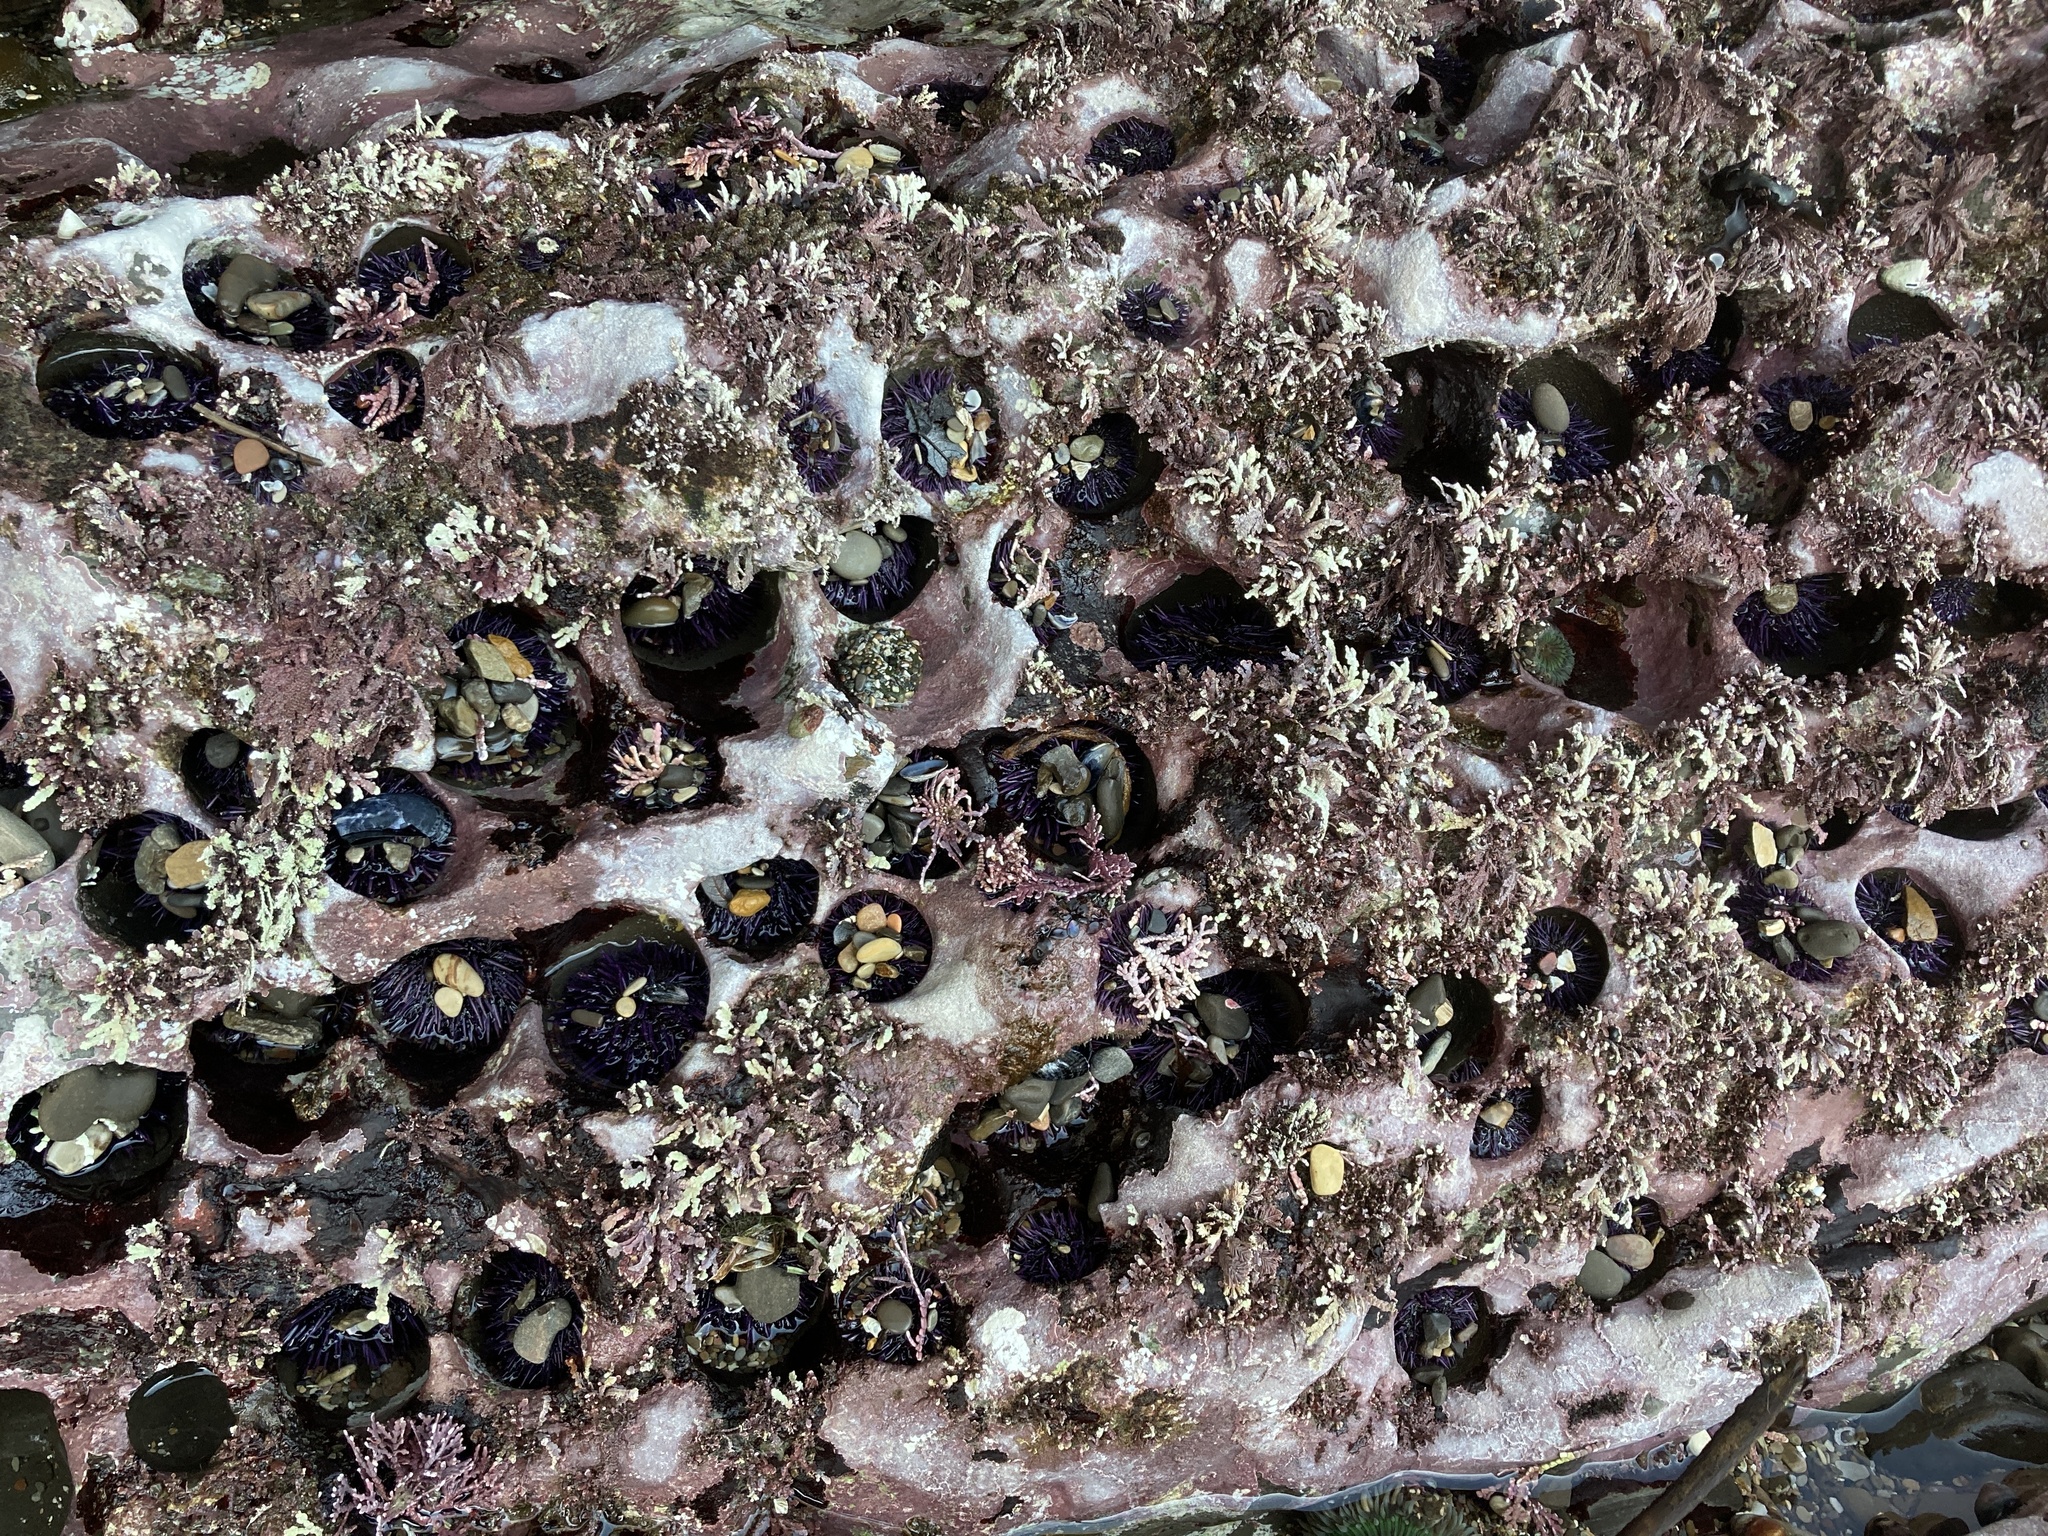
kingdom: Animalia
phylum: Echinodermata
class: Echinoidea
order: Camarodonta
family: Strongylocentrotidae
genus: Strongylocentrotus
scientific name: Strongylocentrotus purpuratus
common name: Purple sea urchin
